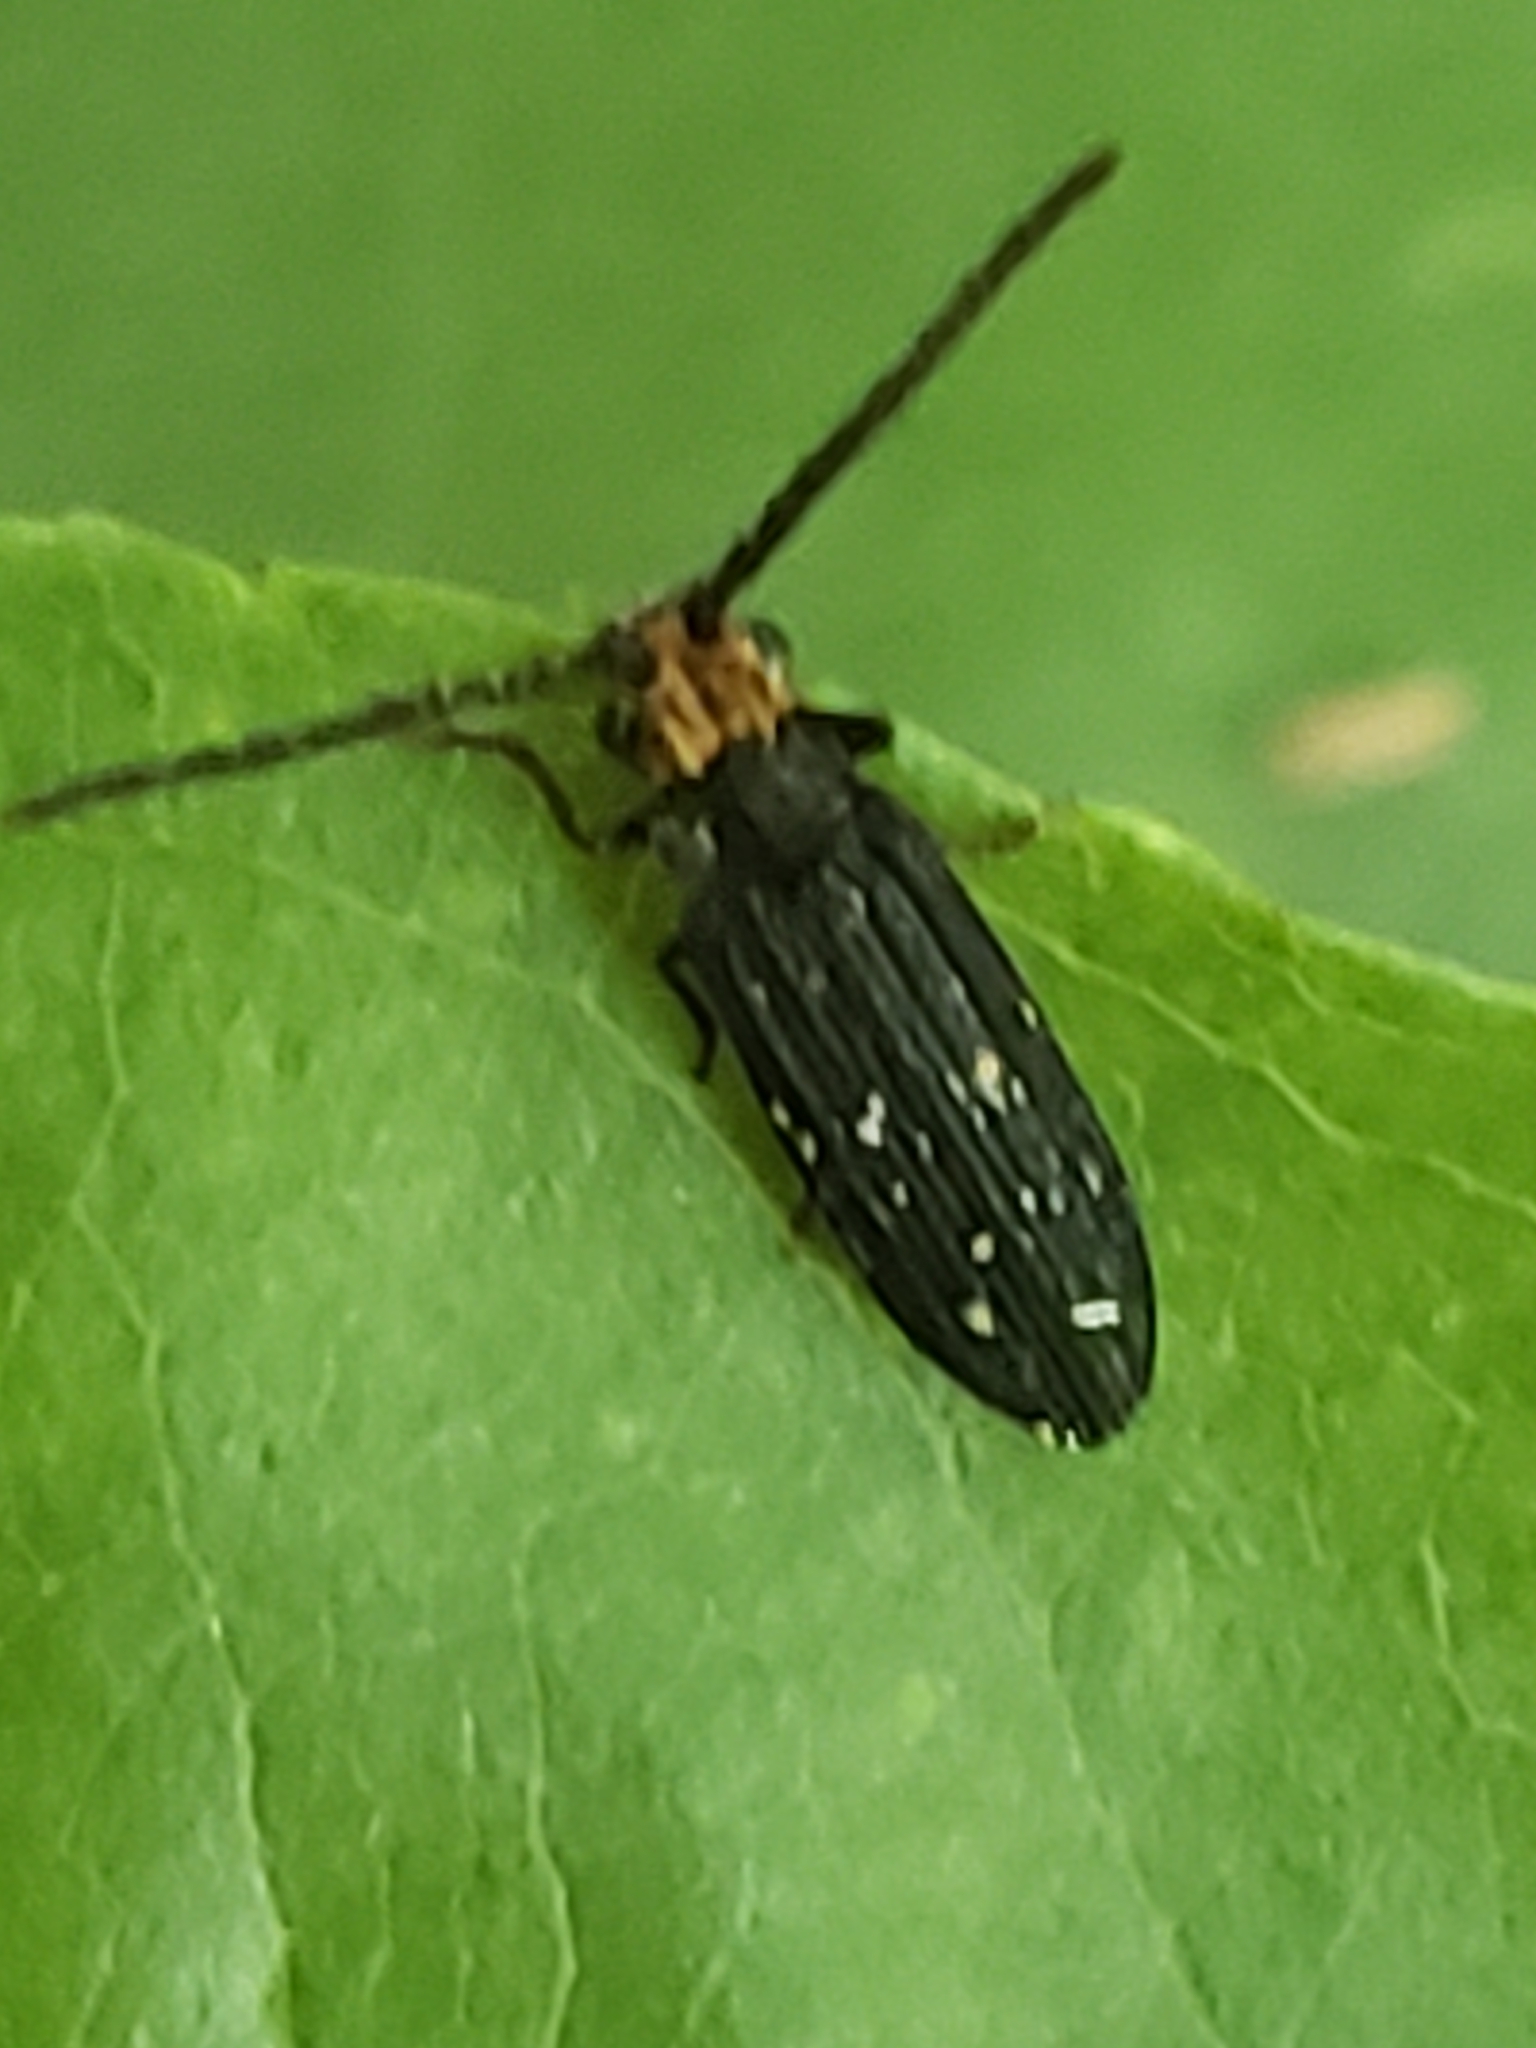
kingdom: Animalia
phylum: Arthropoda
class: Insecta
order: Coleoptera
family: Cupedidae
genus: Cupes
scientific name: Cupes capitata
